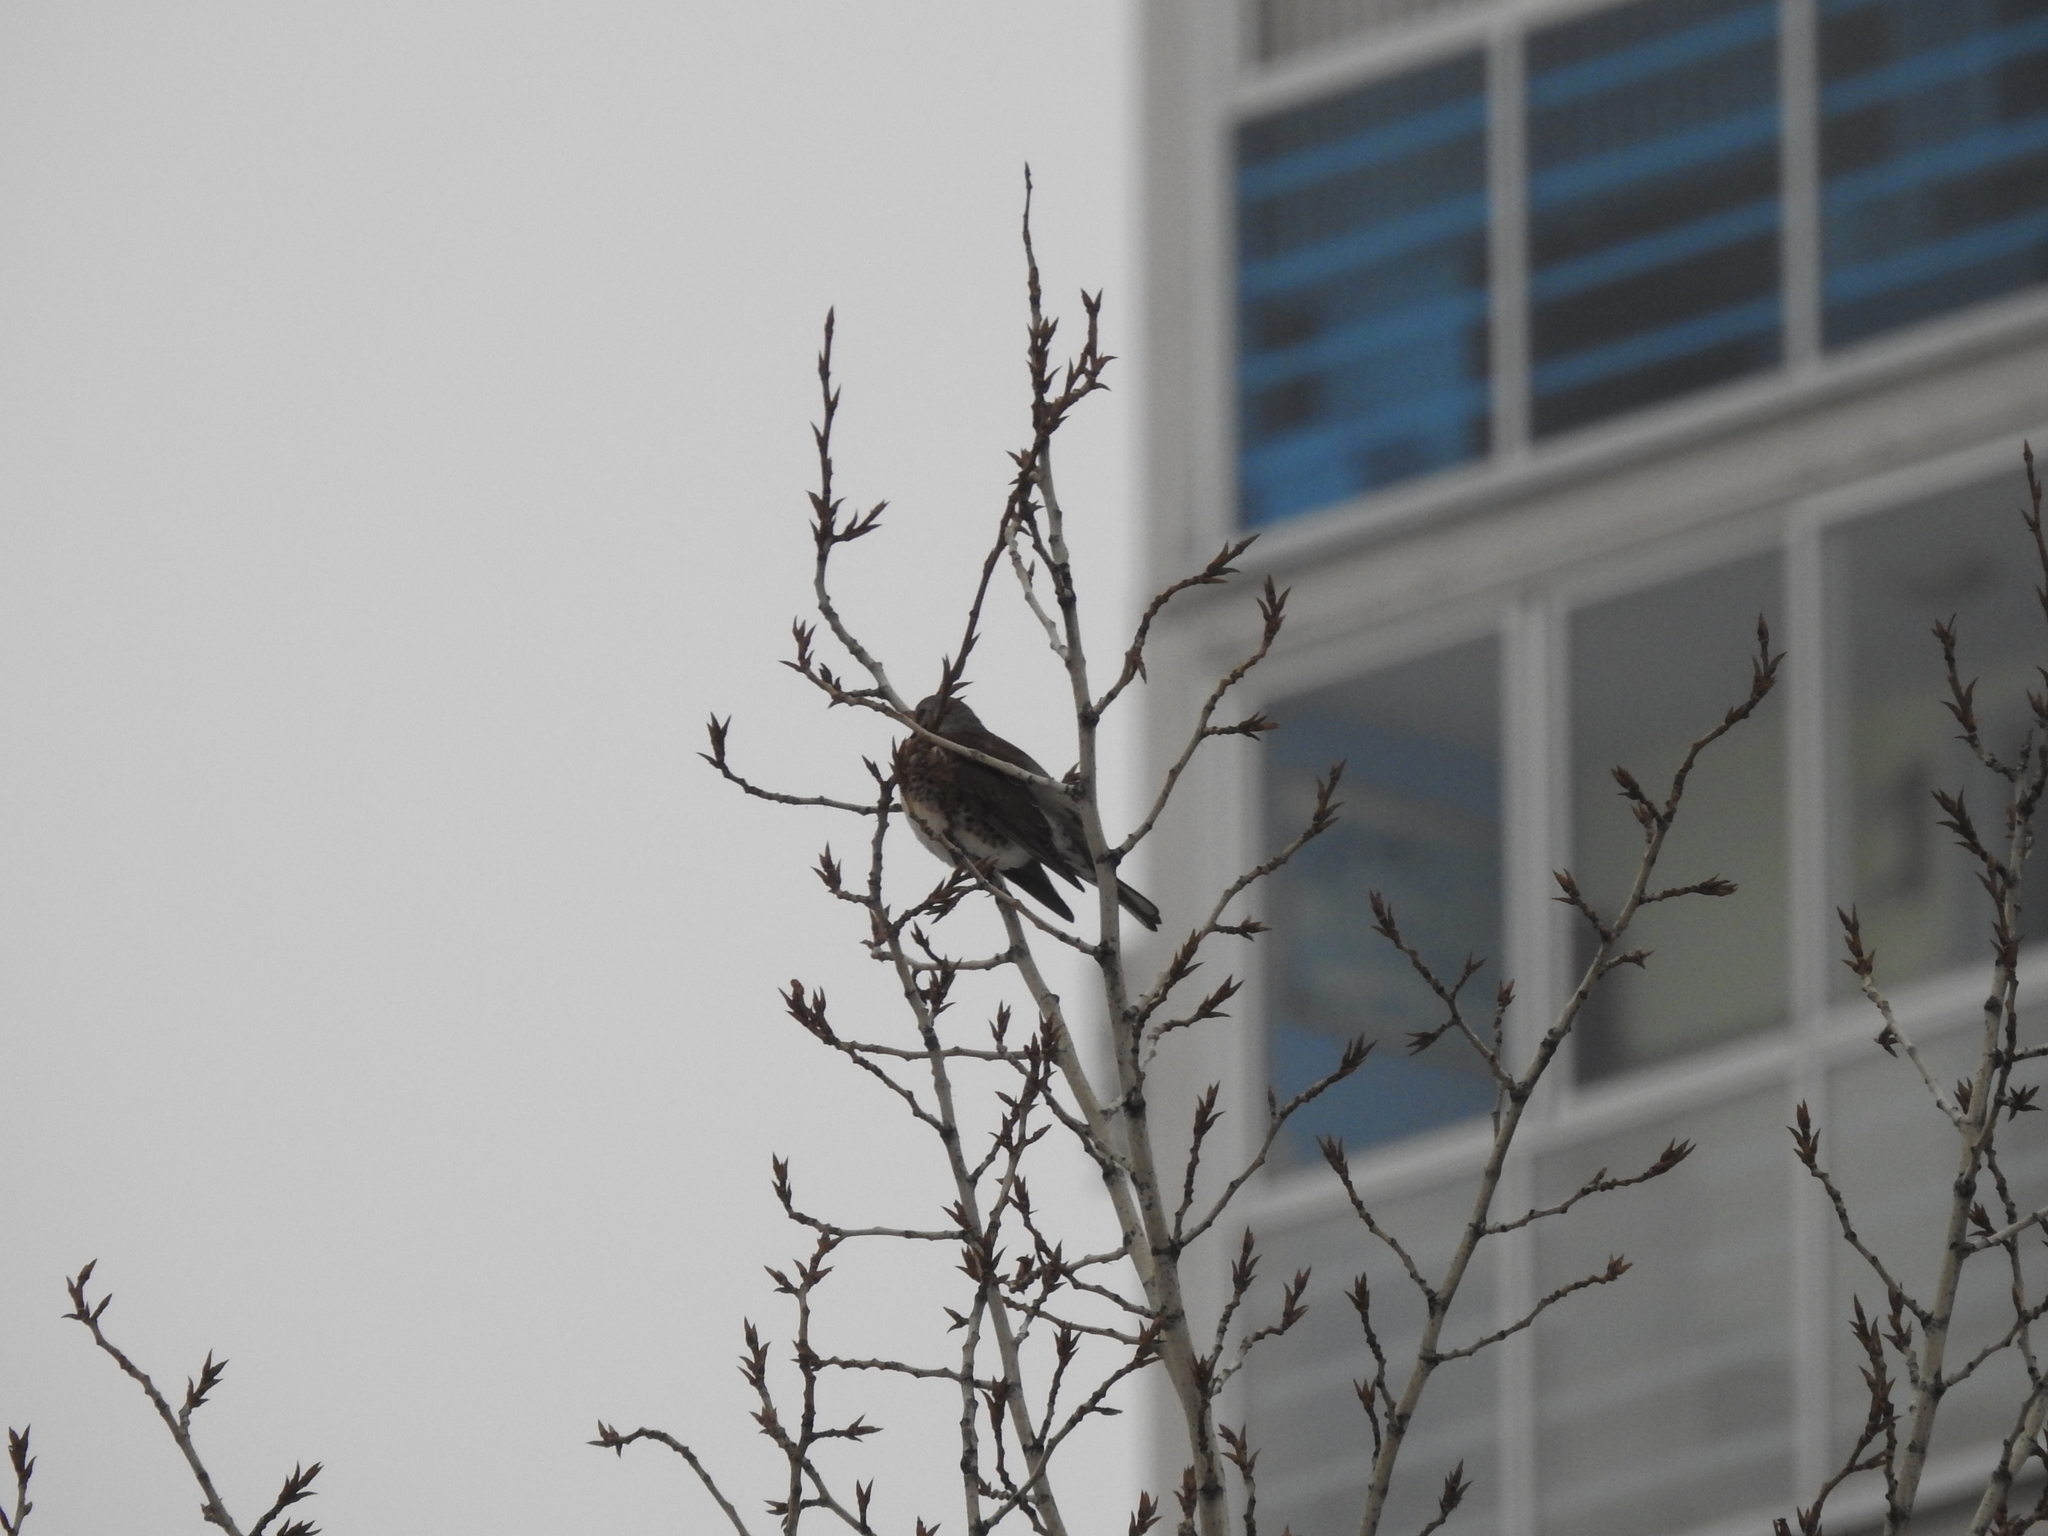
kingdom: Animalia
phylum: Chordata
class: Aves
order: Passeriformes
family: Turdidae
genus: Turdus
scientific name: Turdus pilaris
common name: Fieldfare
